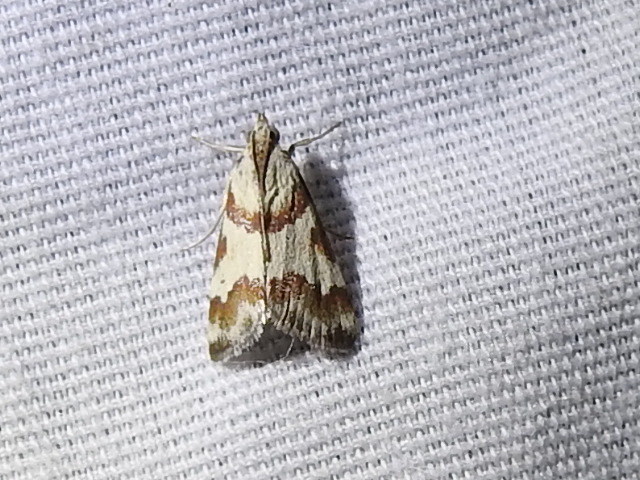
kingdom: Animalia
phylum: Arthropoda
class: Insecta
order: Lepidoptera
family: Crambidae
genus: Noctuelia
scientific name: Noctuelia Mimoschinia rufofascialis
